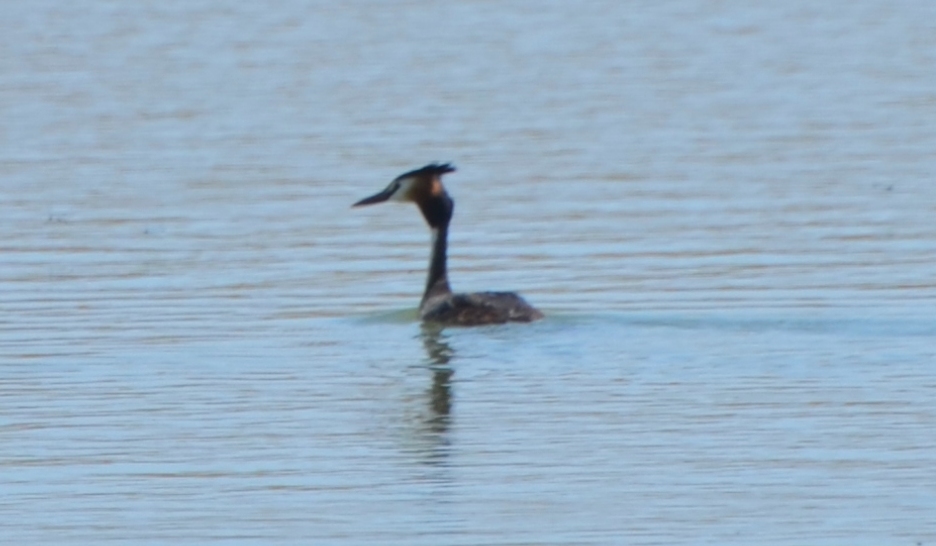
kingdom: Animalia
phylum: Chordata
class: Aves
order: Podicipediformes
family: Podicipedidae
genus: Podiceps
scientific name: Podiceps cristatus
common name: Great crested grebe
